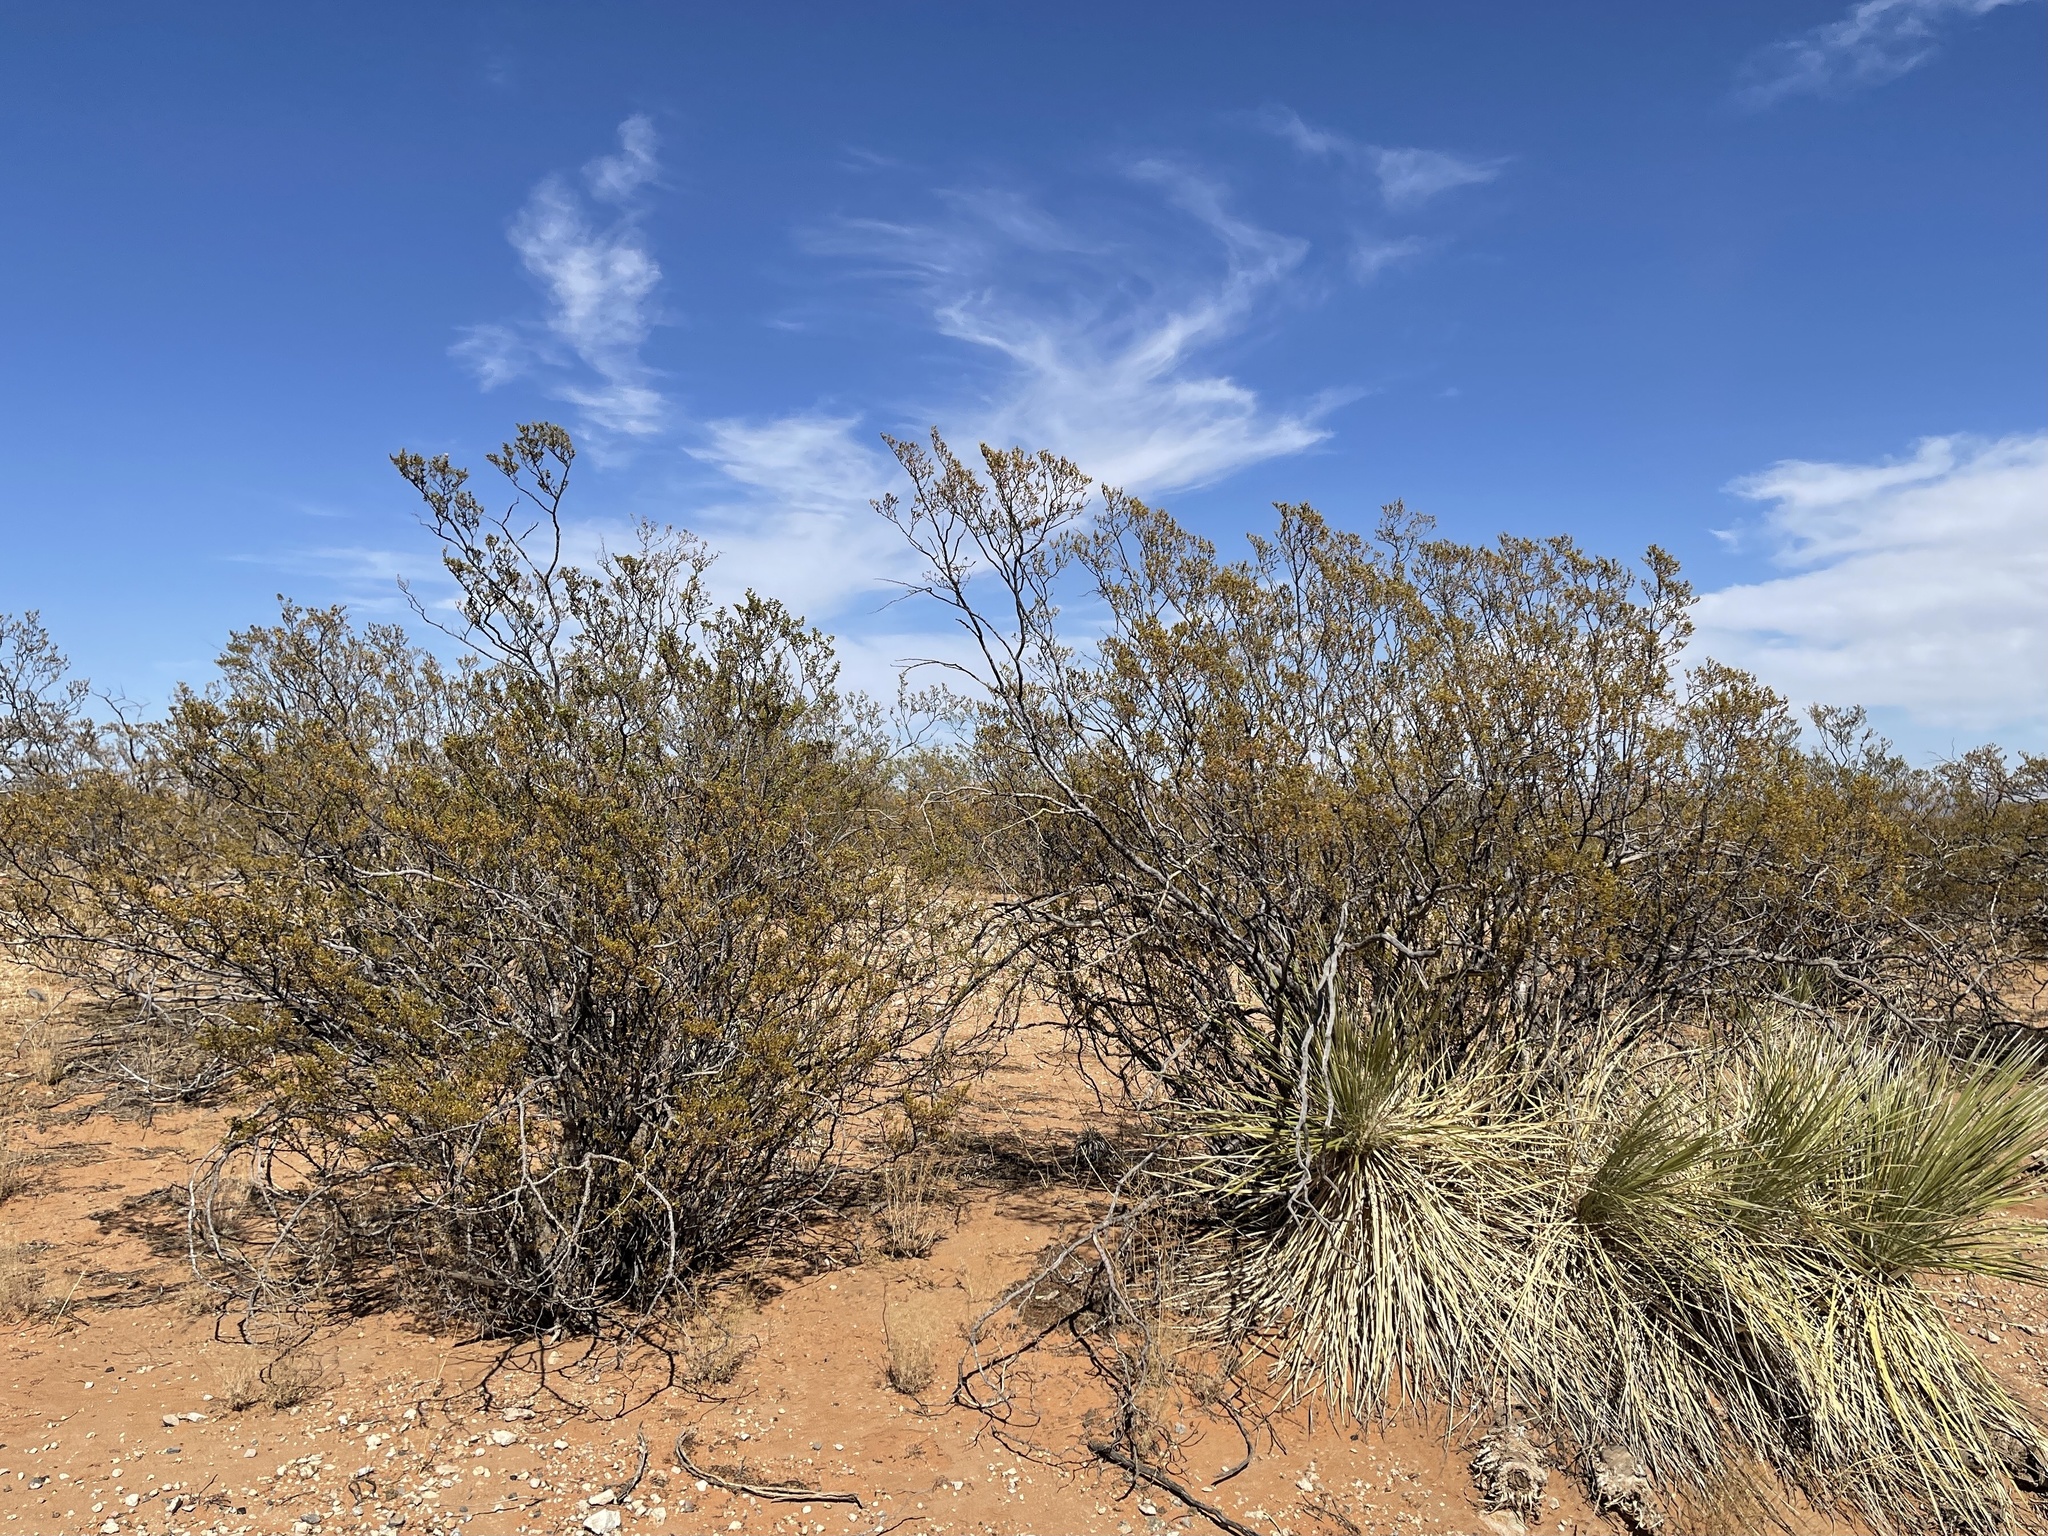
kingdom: Plantae
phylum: Tracheophyta
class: Magnoliopsida
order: Zygophyllales
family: Zygophyllaceae
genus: Larrea
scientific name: Larrea tridentata
